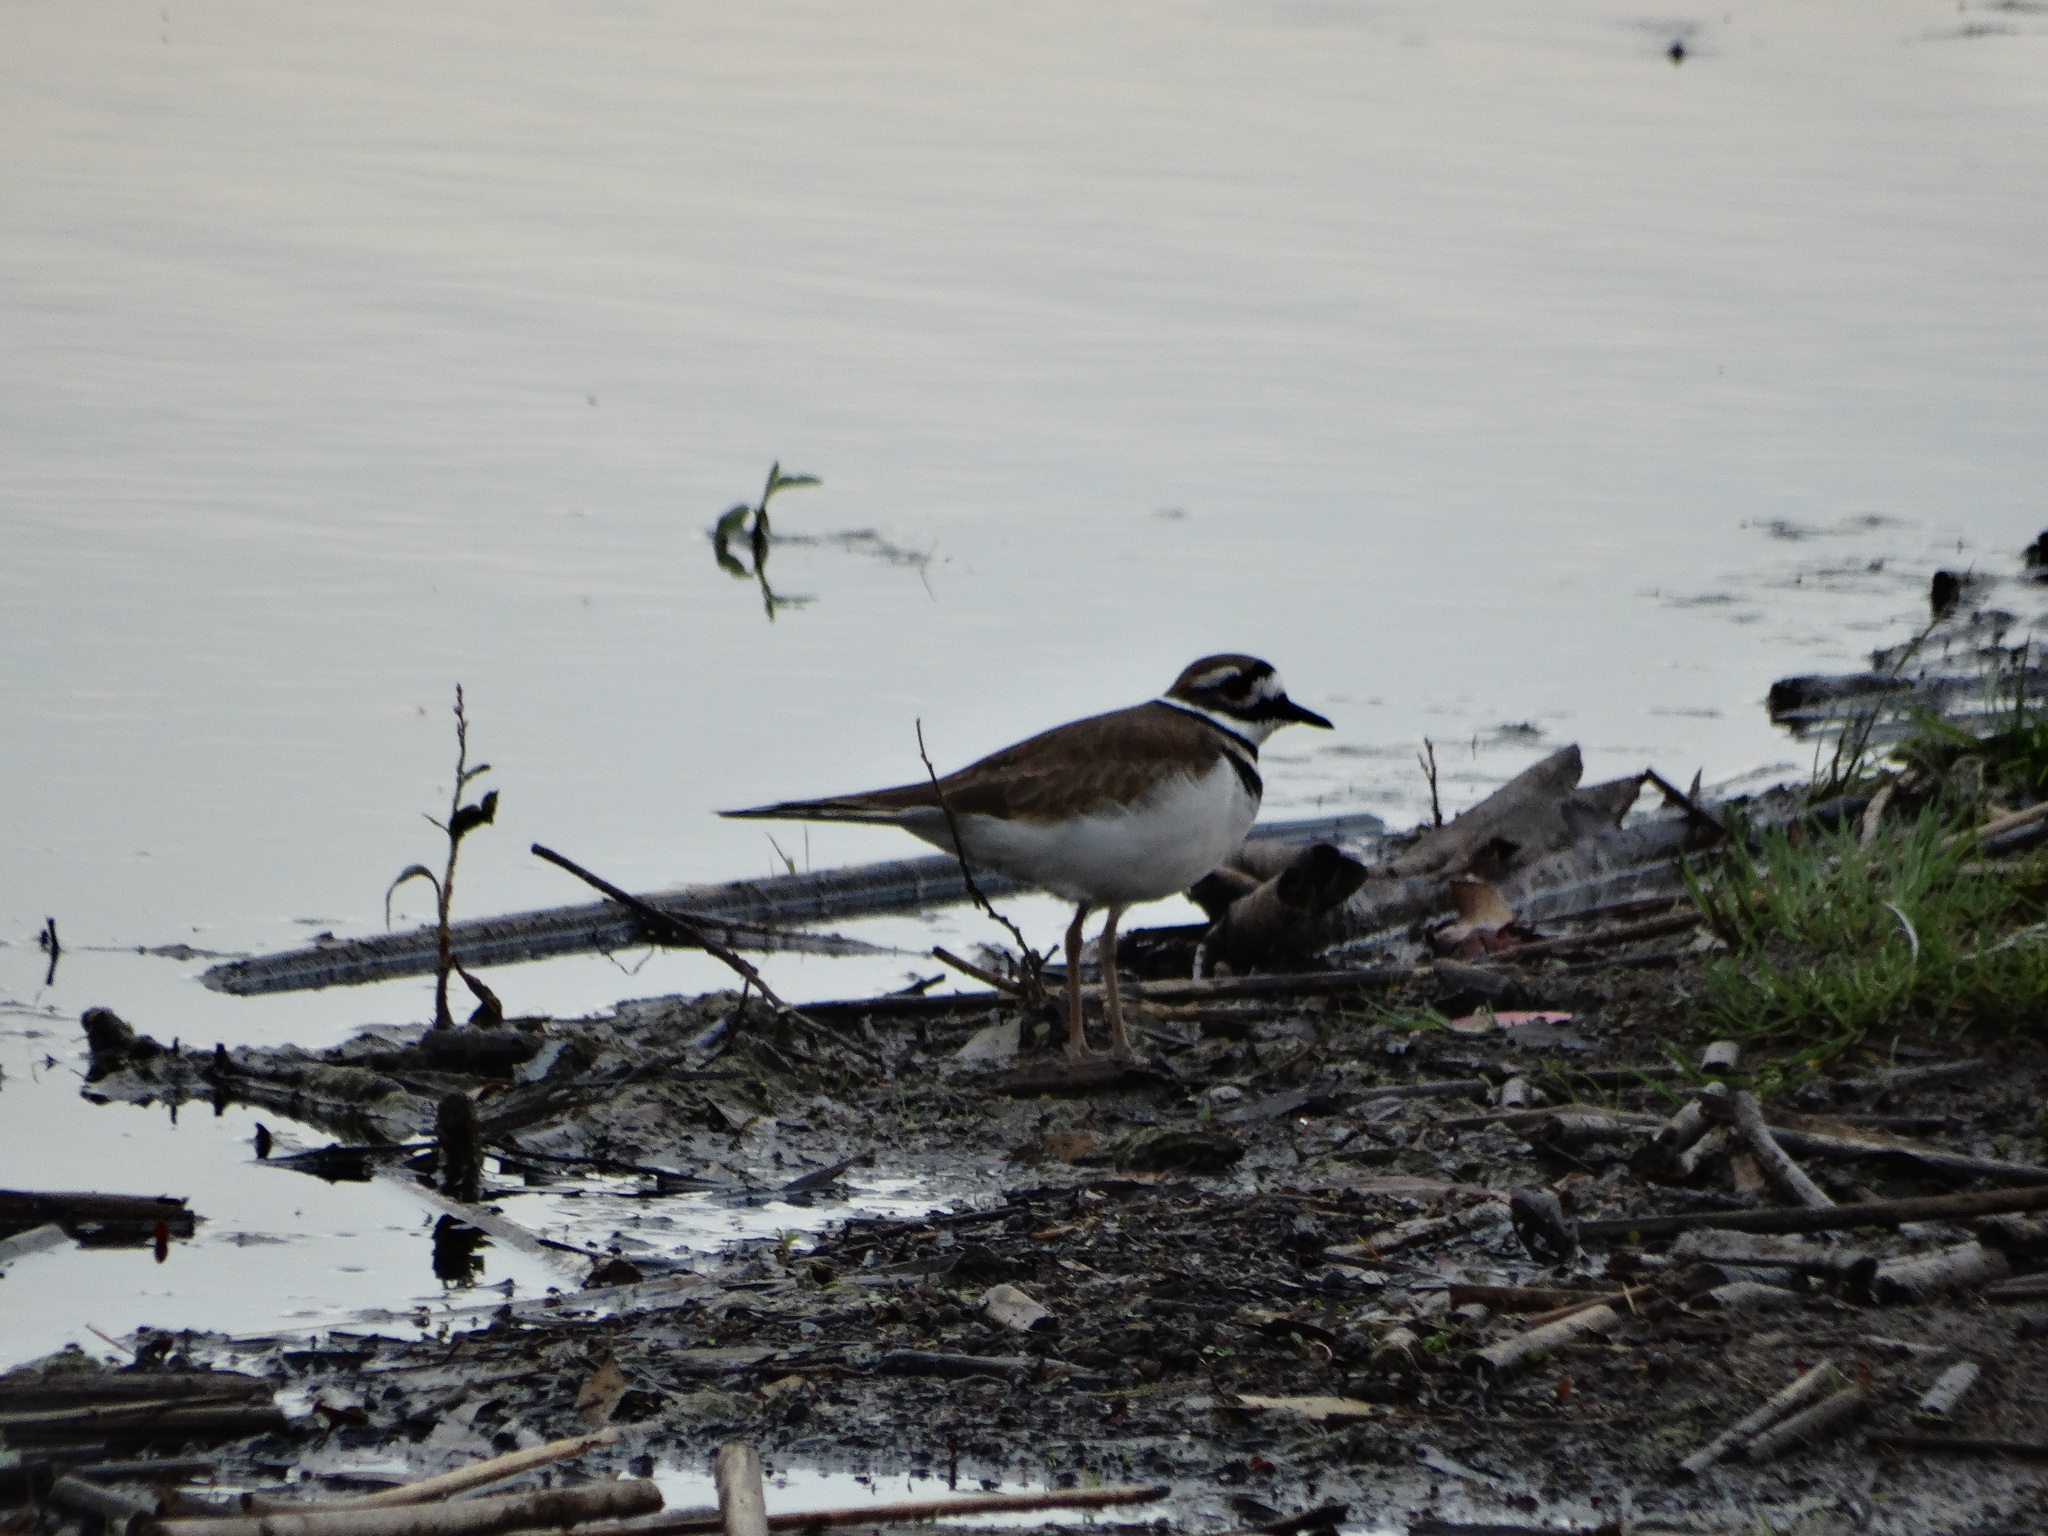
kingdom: Animalia
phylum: Chordata
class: Aves
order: Charadriiformes
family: Charadriidae
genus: Charadrius
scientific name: Charadrius vociferus
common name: Killdeer
